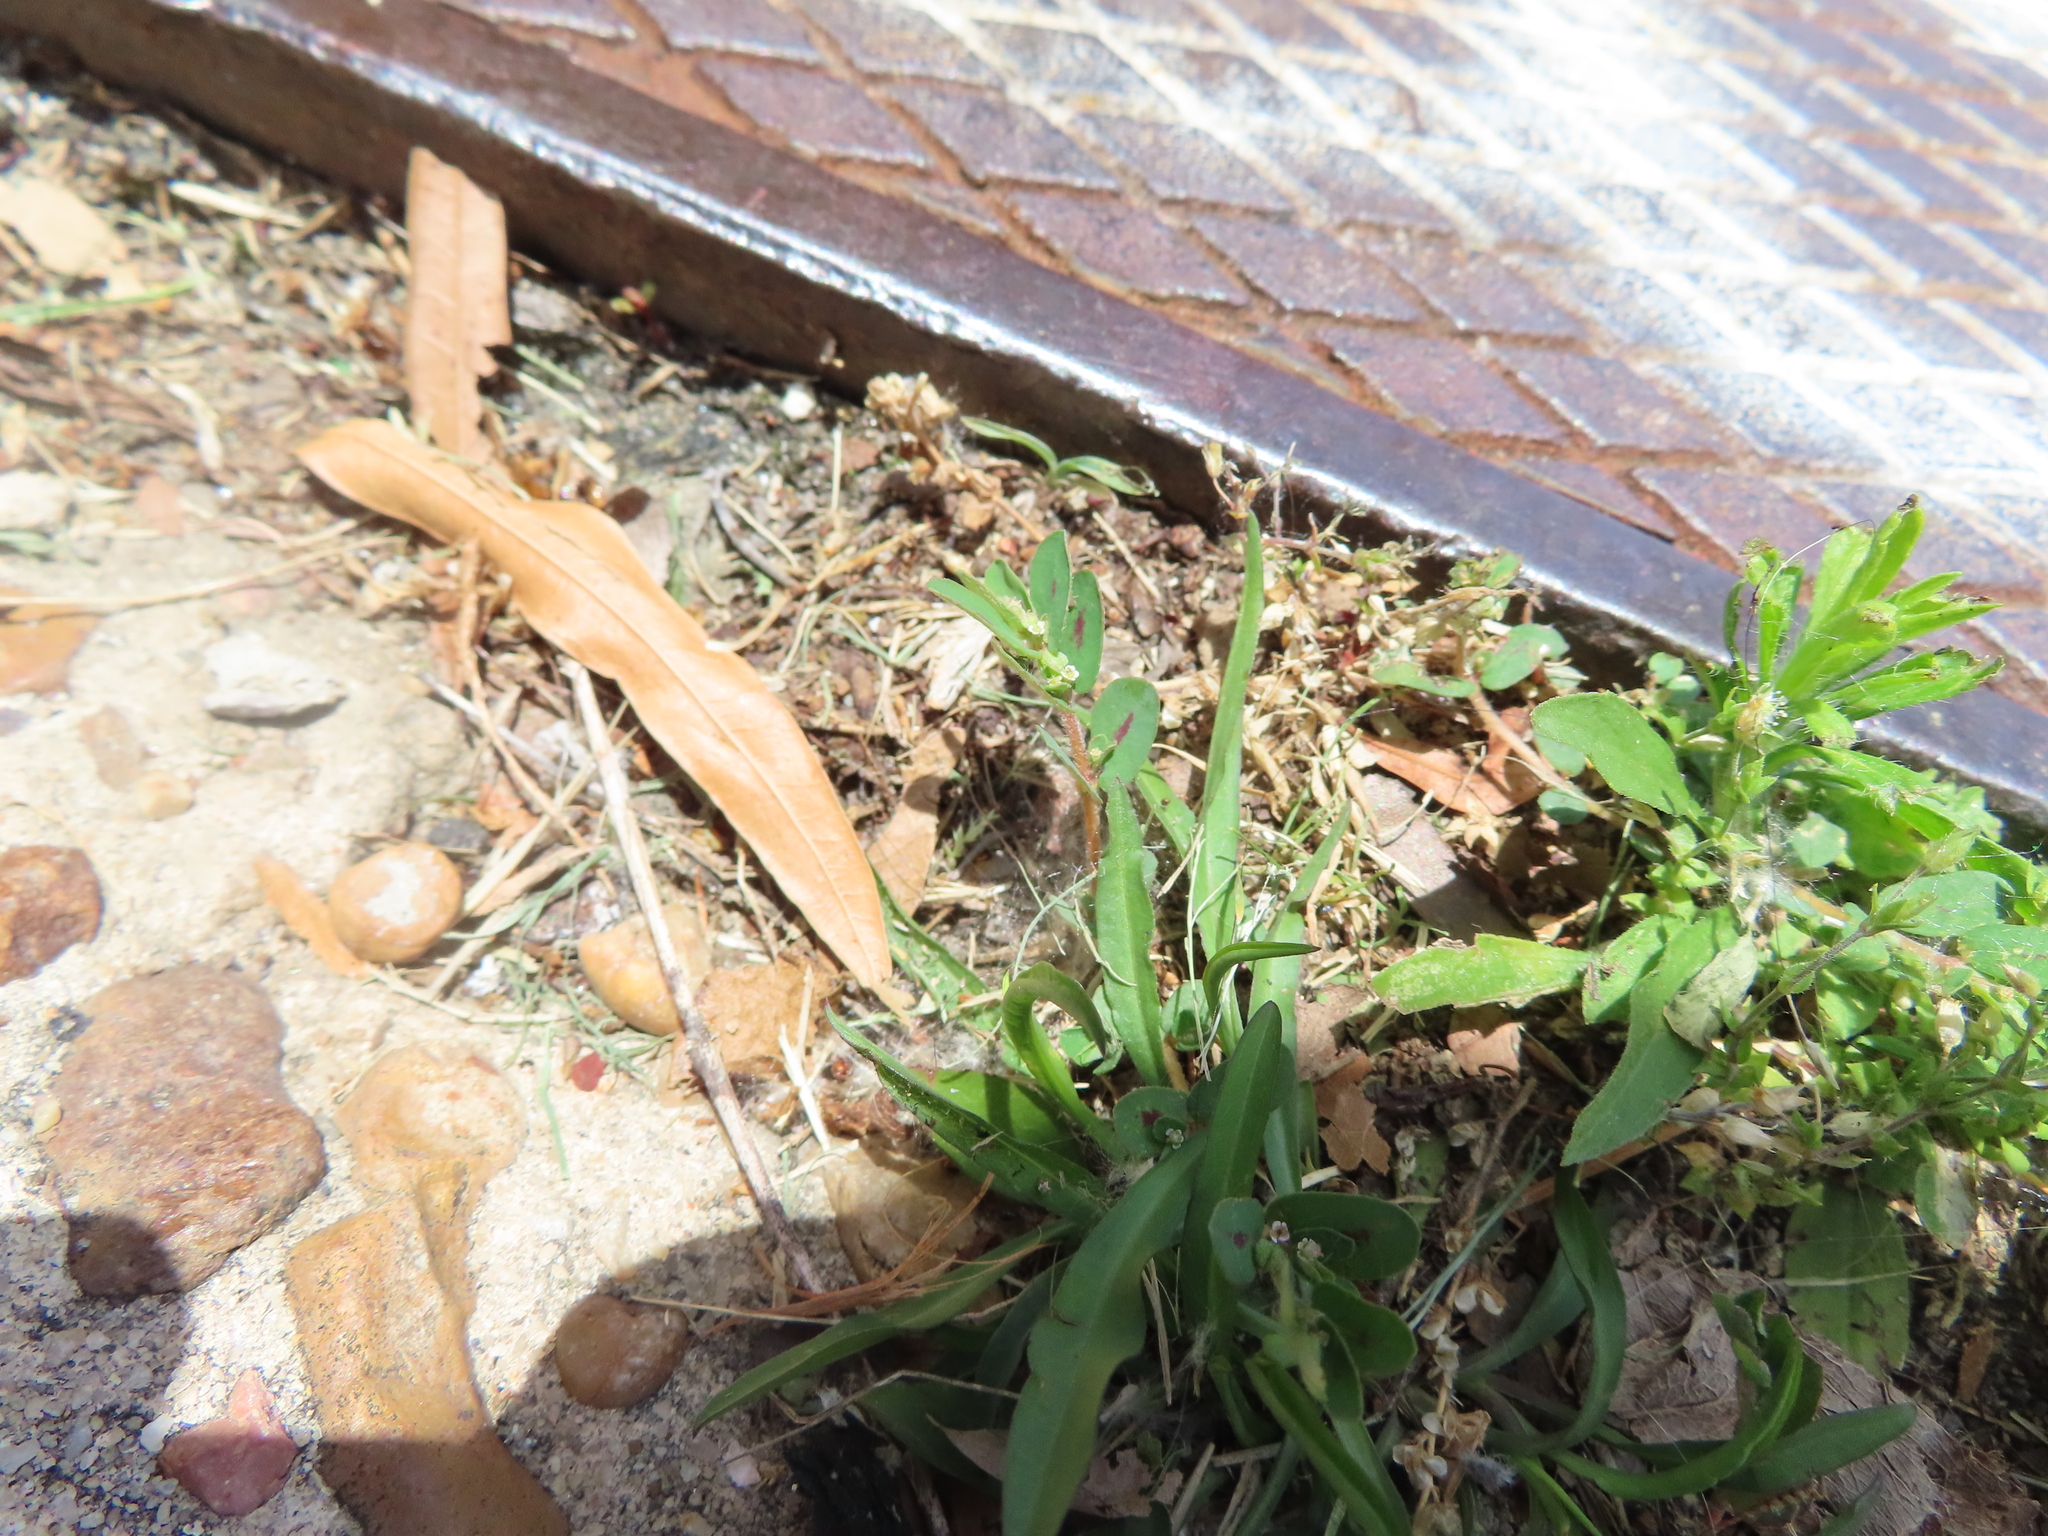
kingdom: Plantae
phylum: Tracheophyta
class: Magnoliopsida
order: Malpighiales
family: Euphorbiaceae
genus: Euphorbia
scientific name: Euphorbia maculata
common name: Spotted spurge
